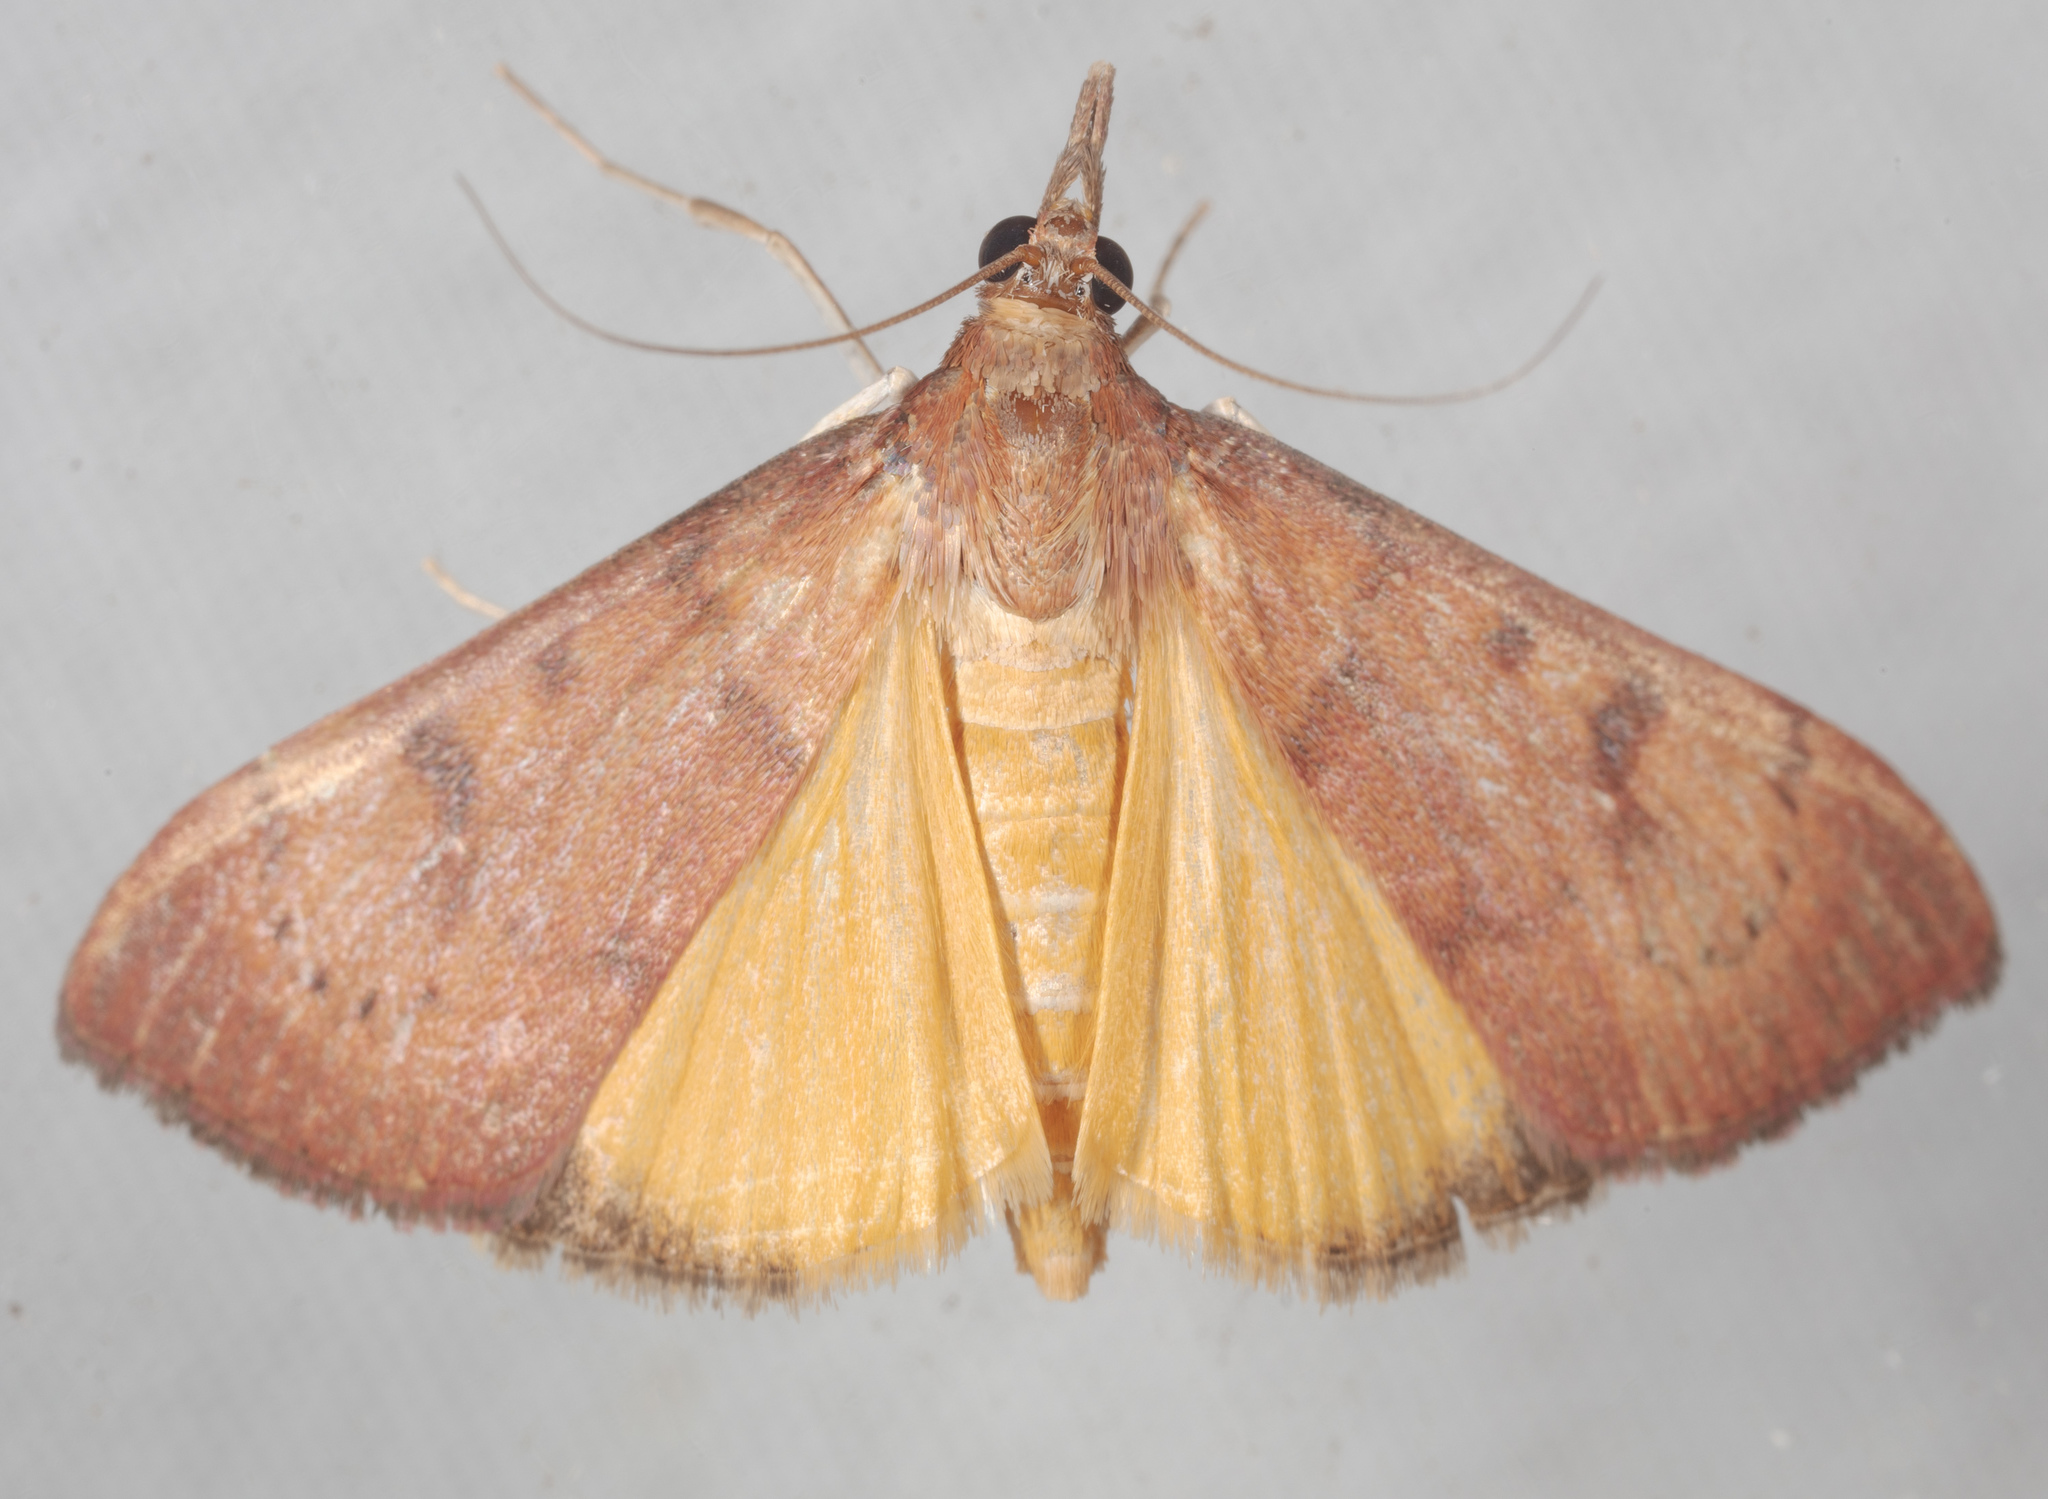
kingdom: Animalia
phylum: Arthropoda
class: Insecta
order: Lepidoptera
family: Crambidae
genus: Uresiphita
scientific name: Uresiphita reversalis
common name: Genista broom moth
